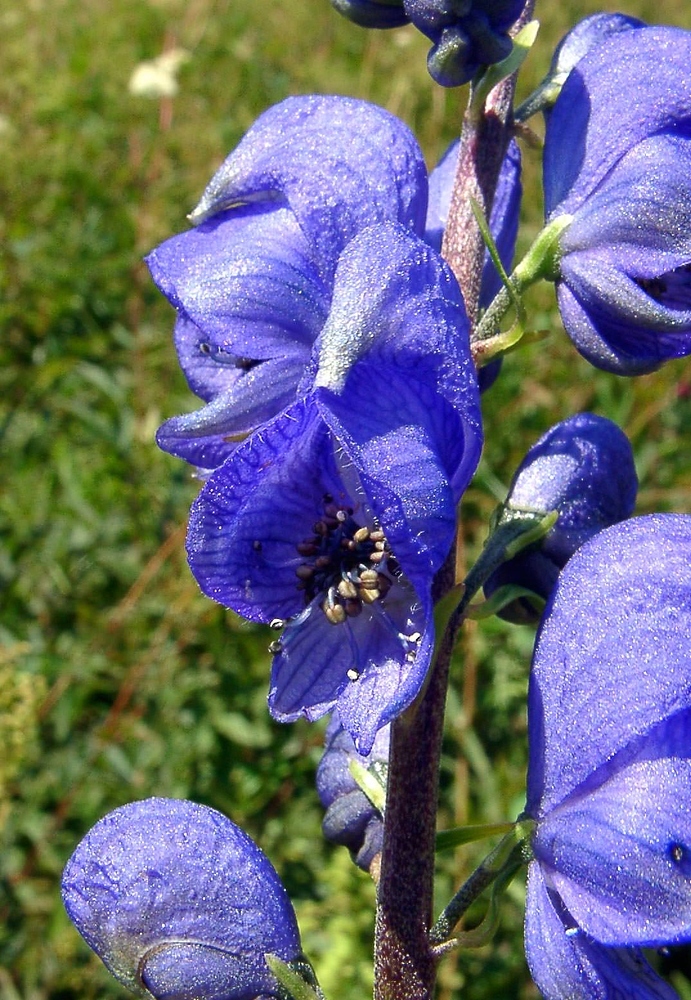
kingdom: Plantae
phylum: Tracheophyta
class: Magnoliopsida
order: Ranunculales
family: Ranunculaceae
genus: Aconitum
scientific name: Aconitum napellus
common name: Garden monkshood
